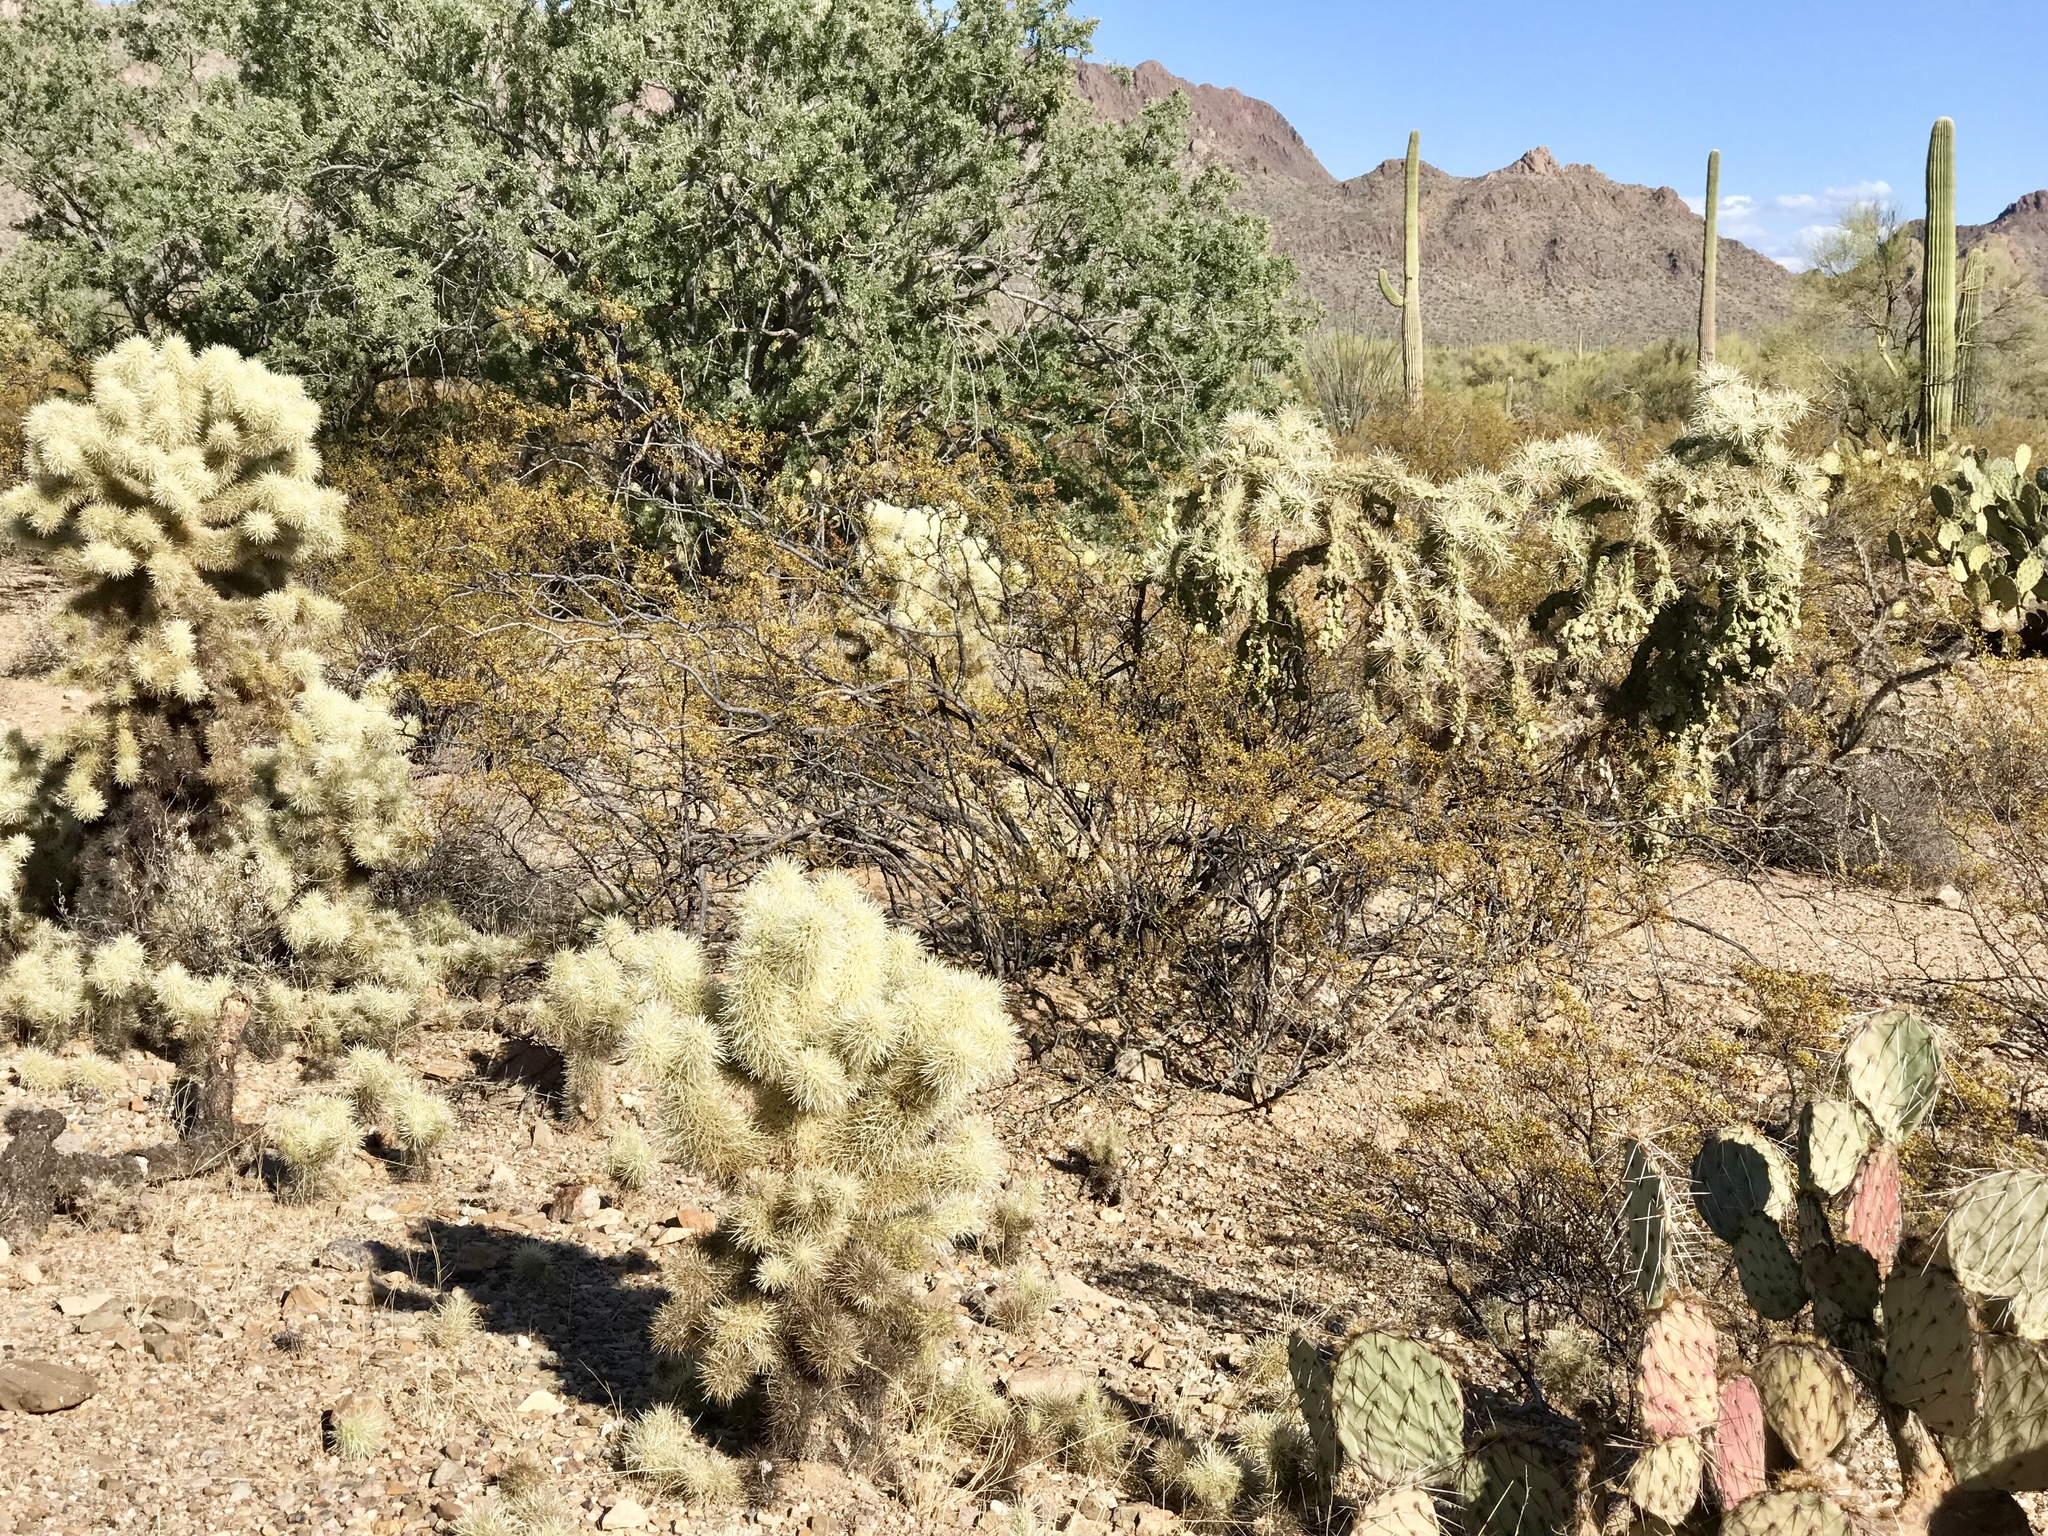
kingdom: Plantae
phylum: Tracheophyta
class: Magnoliopsida
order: Caryophyllales
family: Cactaceae
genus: Cylindropuntia
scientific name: Cylindropuntia fosbergii
